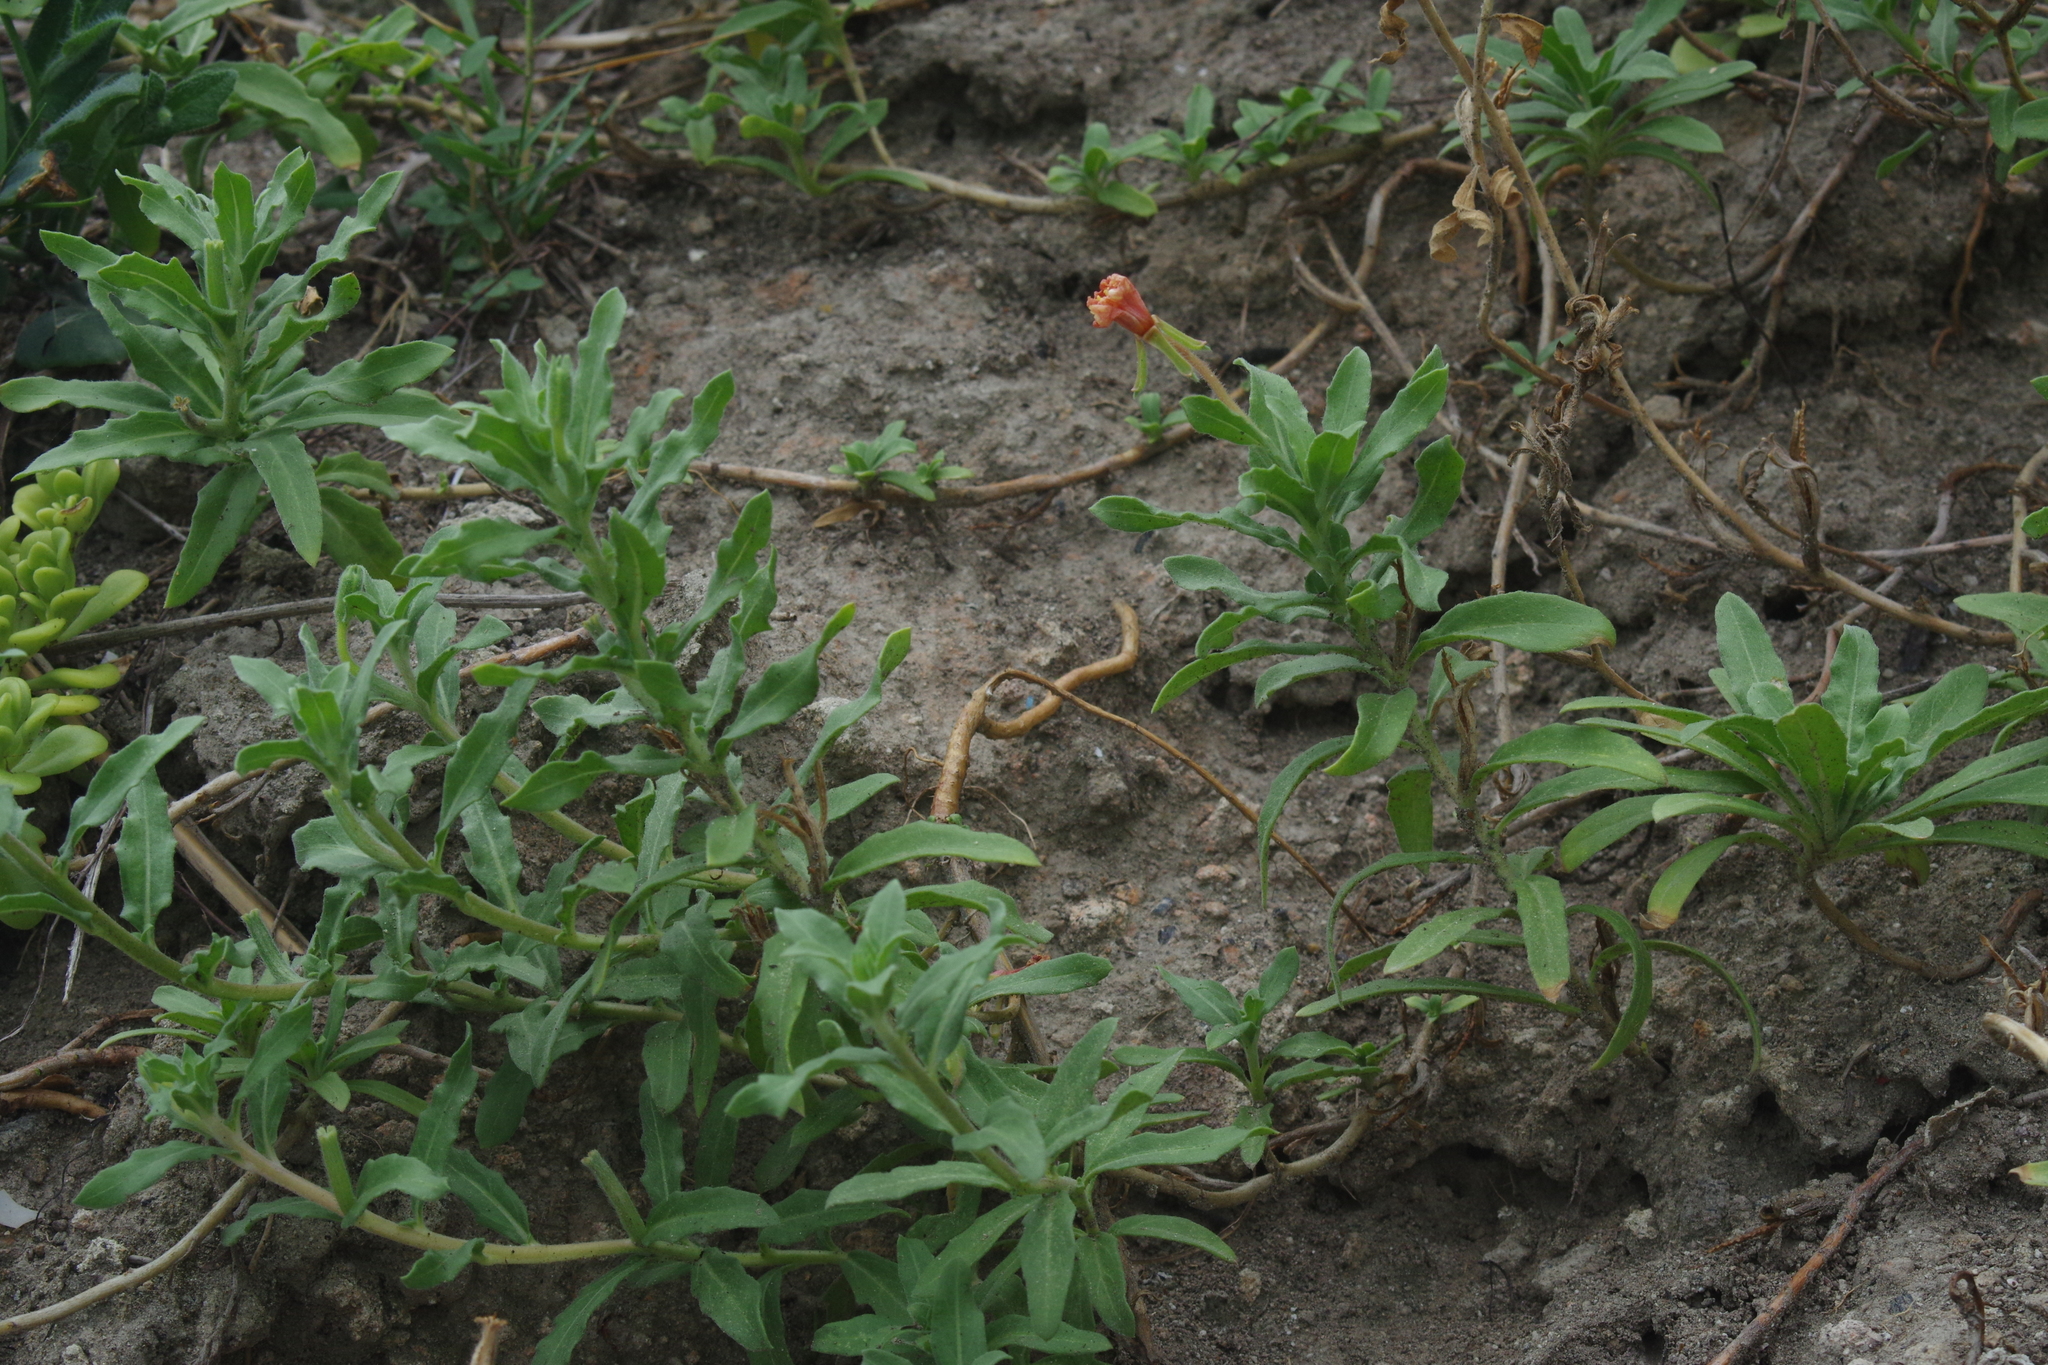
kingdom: Plantae
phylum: Tracheophyta
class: Magnoliopsida
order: Myrtales
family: Onagraceae
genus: Oenothera
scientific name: Oenothera drummondii
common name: Beach evening-primrose
